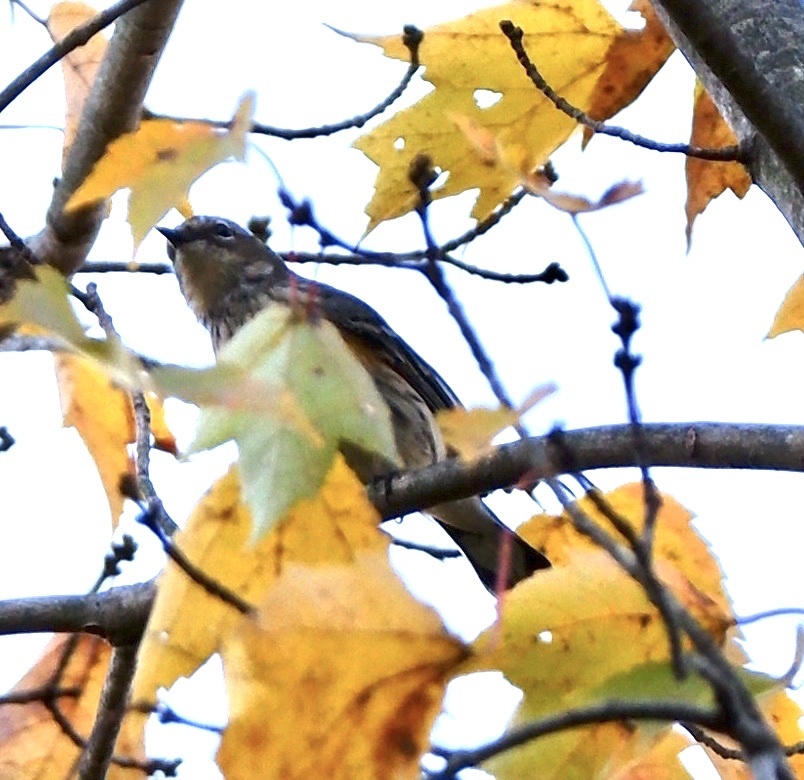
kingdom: Animalia
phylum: Chordata
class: Aves
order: Passeriformes
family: Parulidae
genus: Setophaga
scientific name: Setophaga coronata
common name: Myrtle warbler
